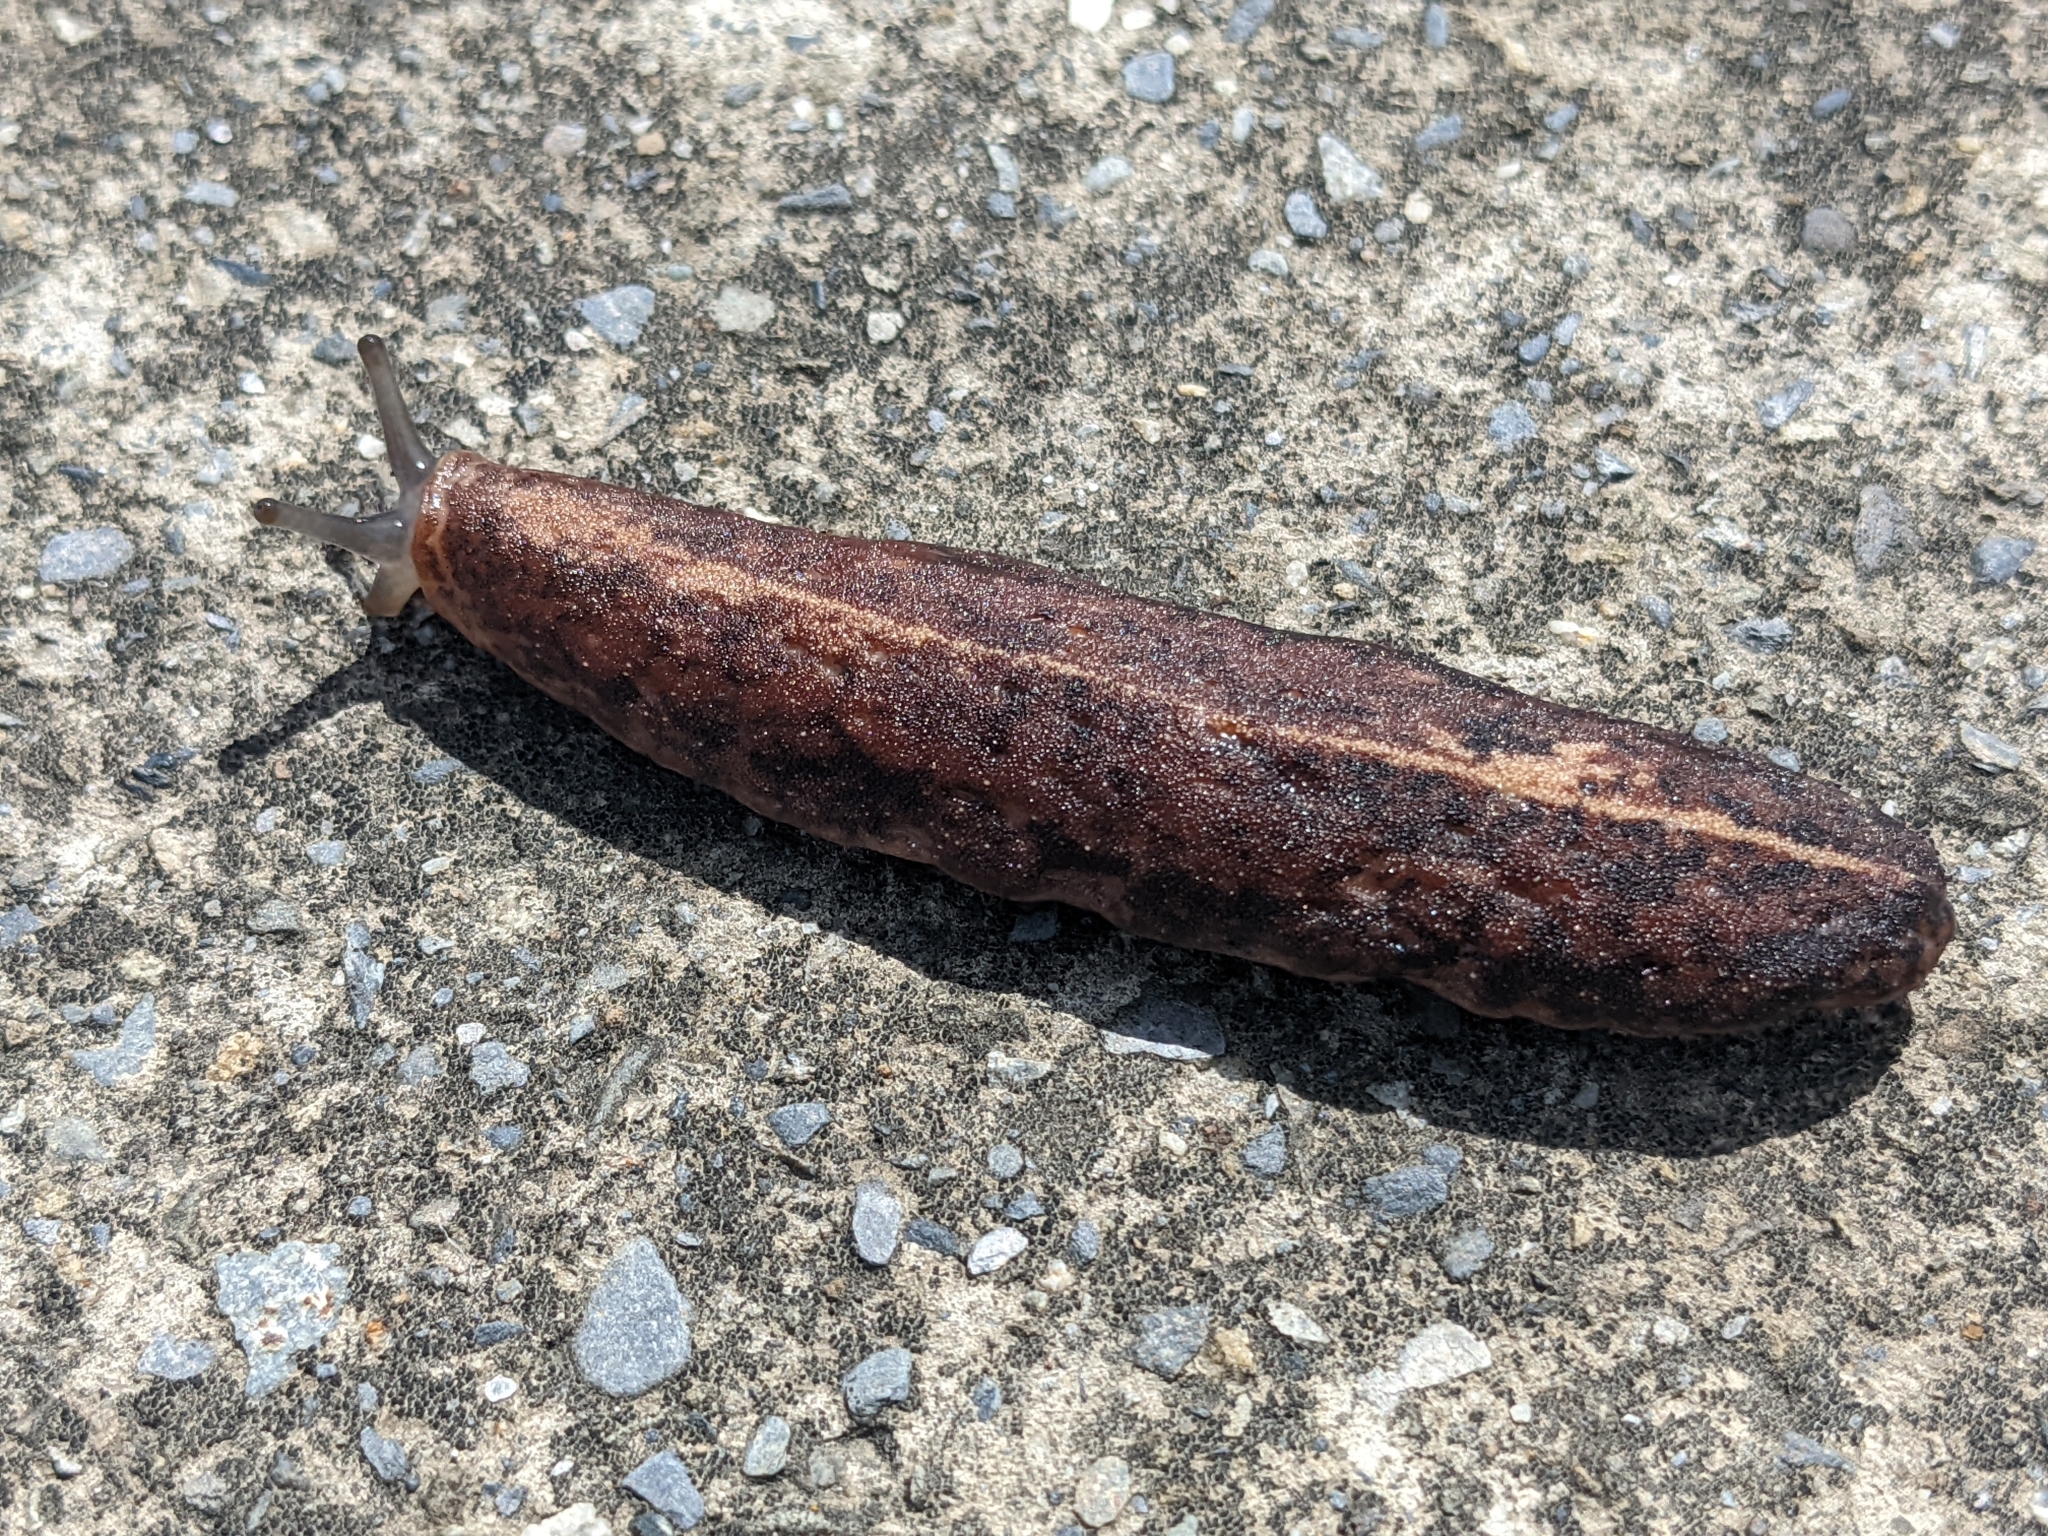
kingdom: Animalia
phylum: Mollusca
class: Gastropoda
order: Systellommatophora
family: Veronicellidae
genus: Laevicaulis
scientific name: Laevicaulis alte
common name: Tropical leatherleaf
